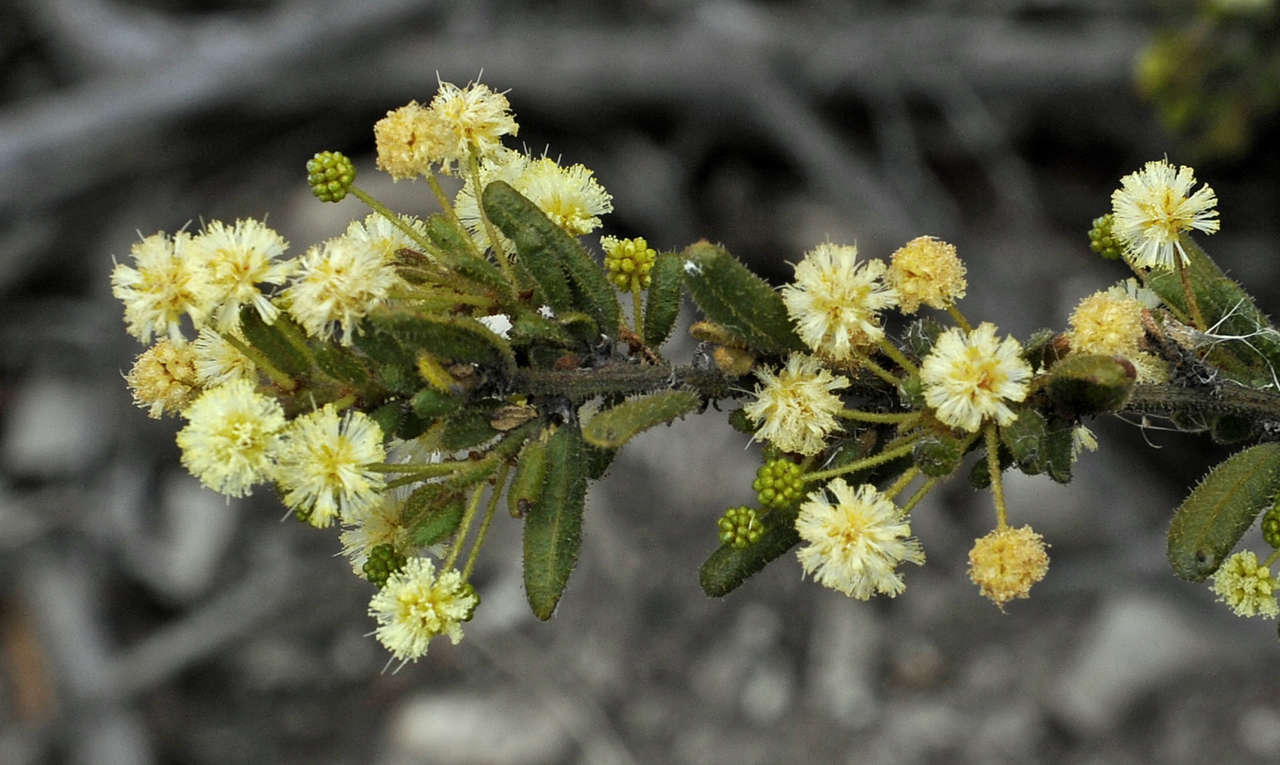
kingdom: Plantae
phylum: Tracheophyta
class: Magnoliopsida
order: Fabales
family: Fabaceae
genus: Acacia
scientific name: Acacia aspera
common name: Rough wattle
